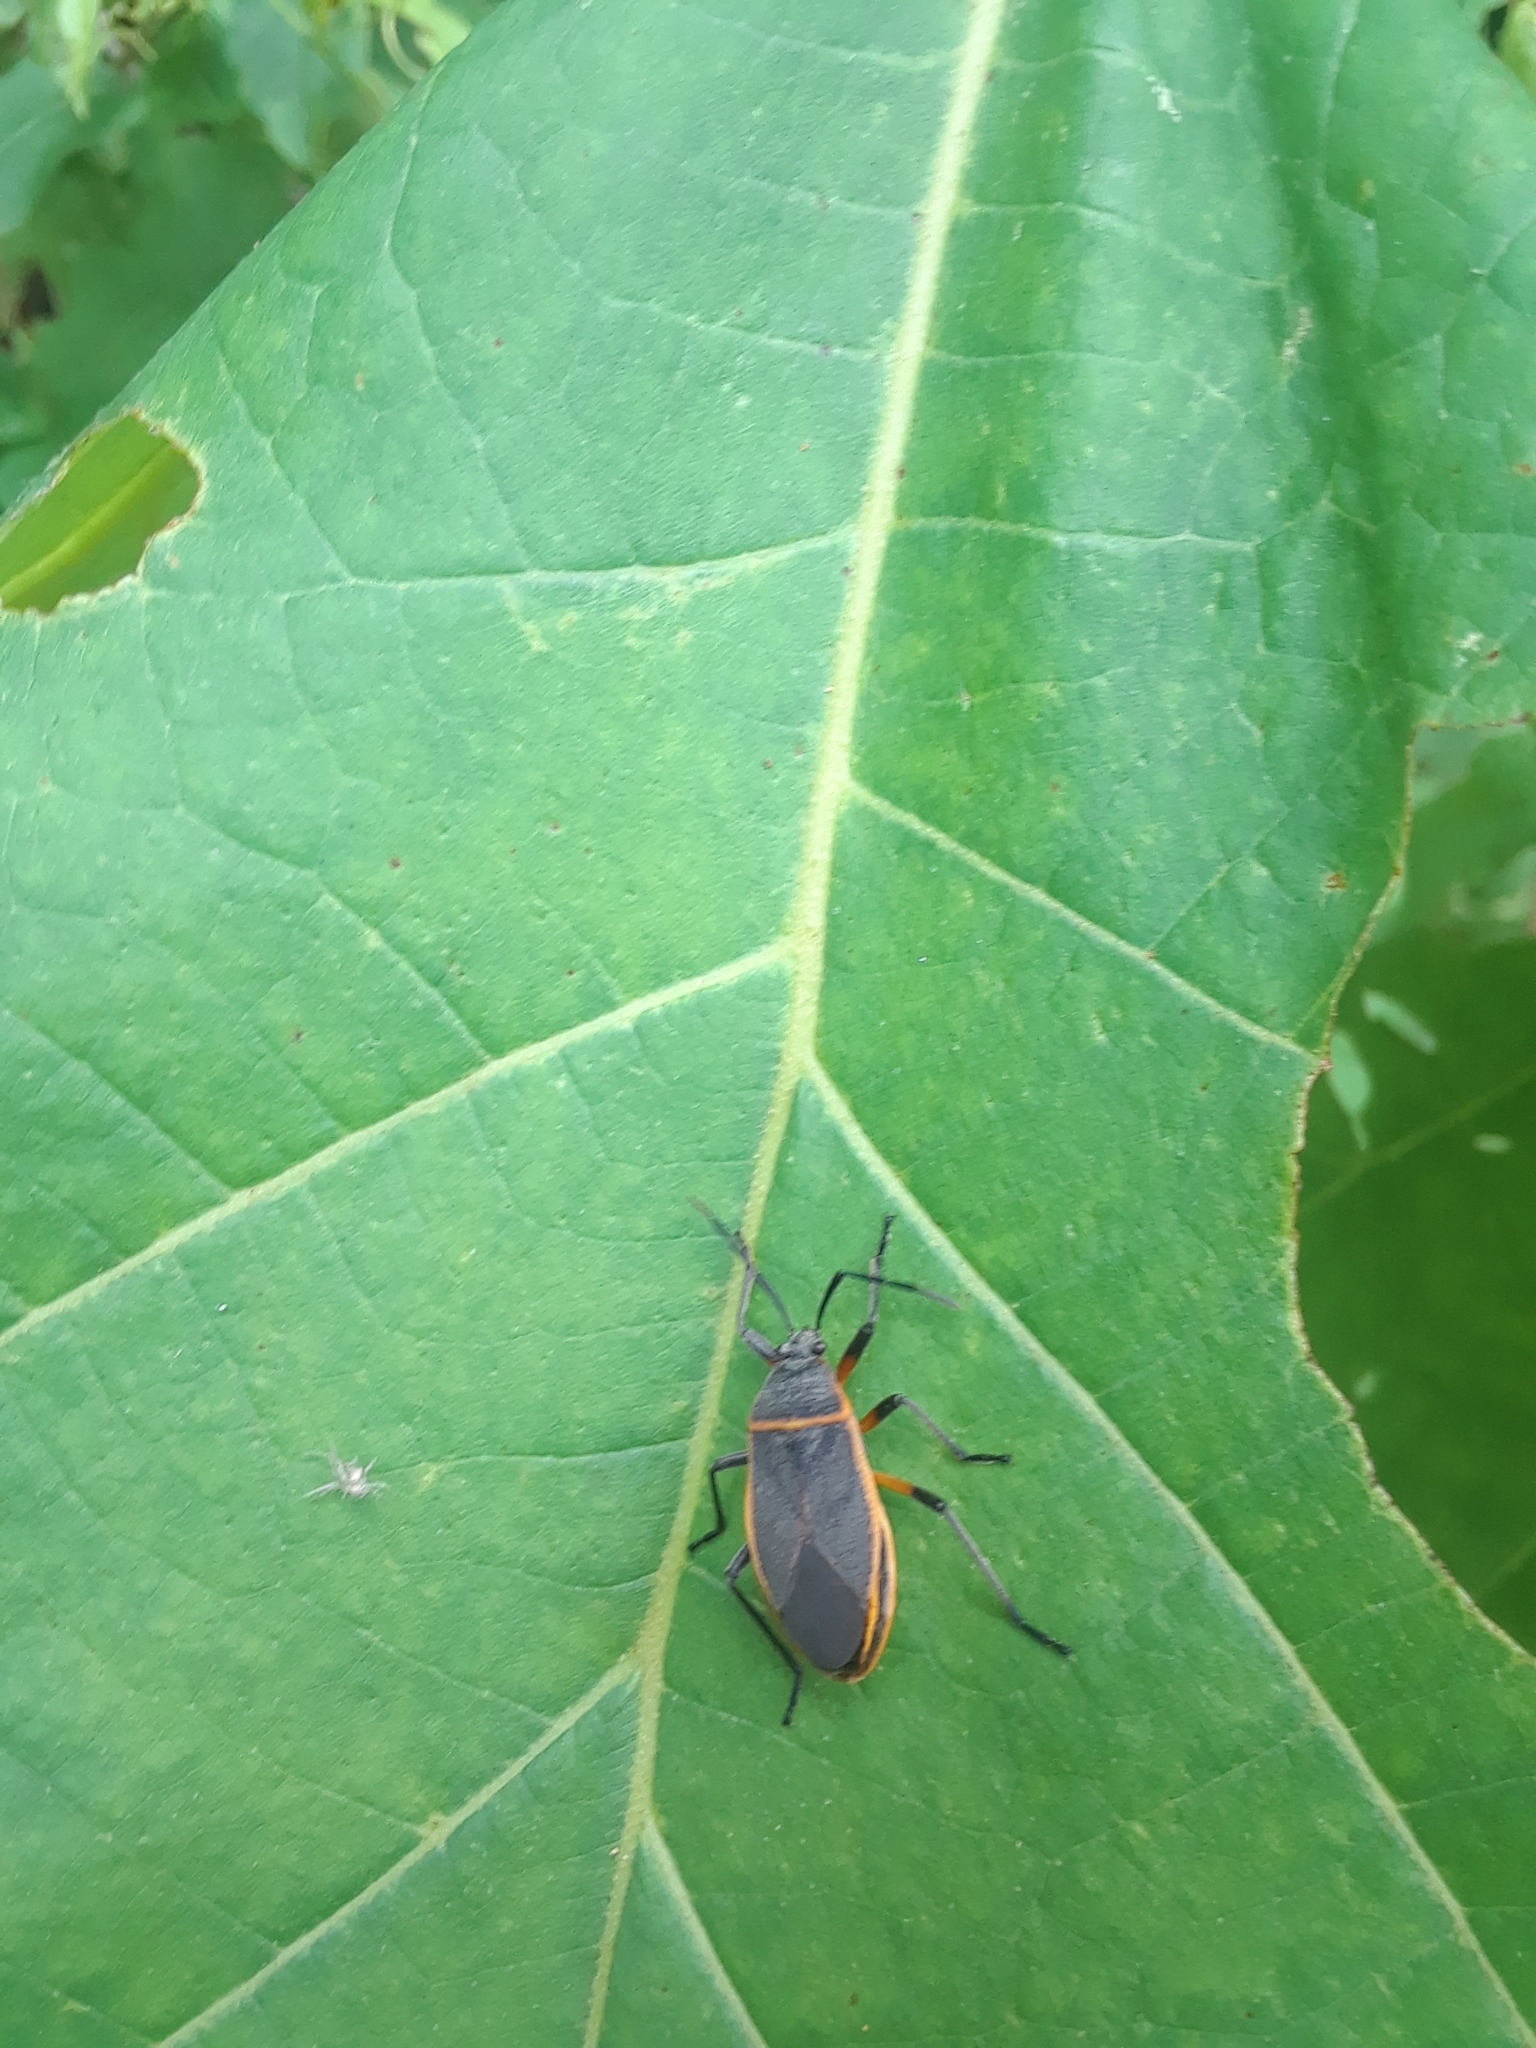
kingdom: Animalia
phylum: Arthropoda
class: Insecta
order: Hemiptera
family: Largidae
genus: Largus
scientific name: Largus succinctus
